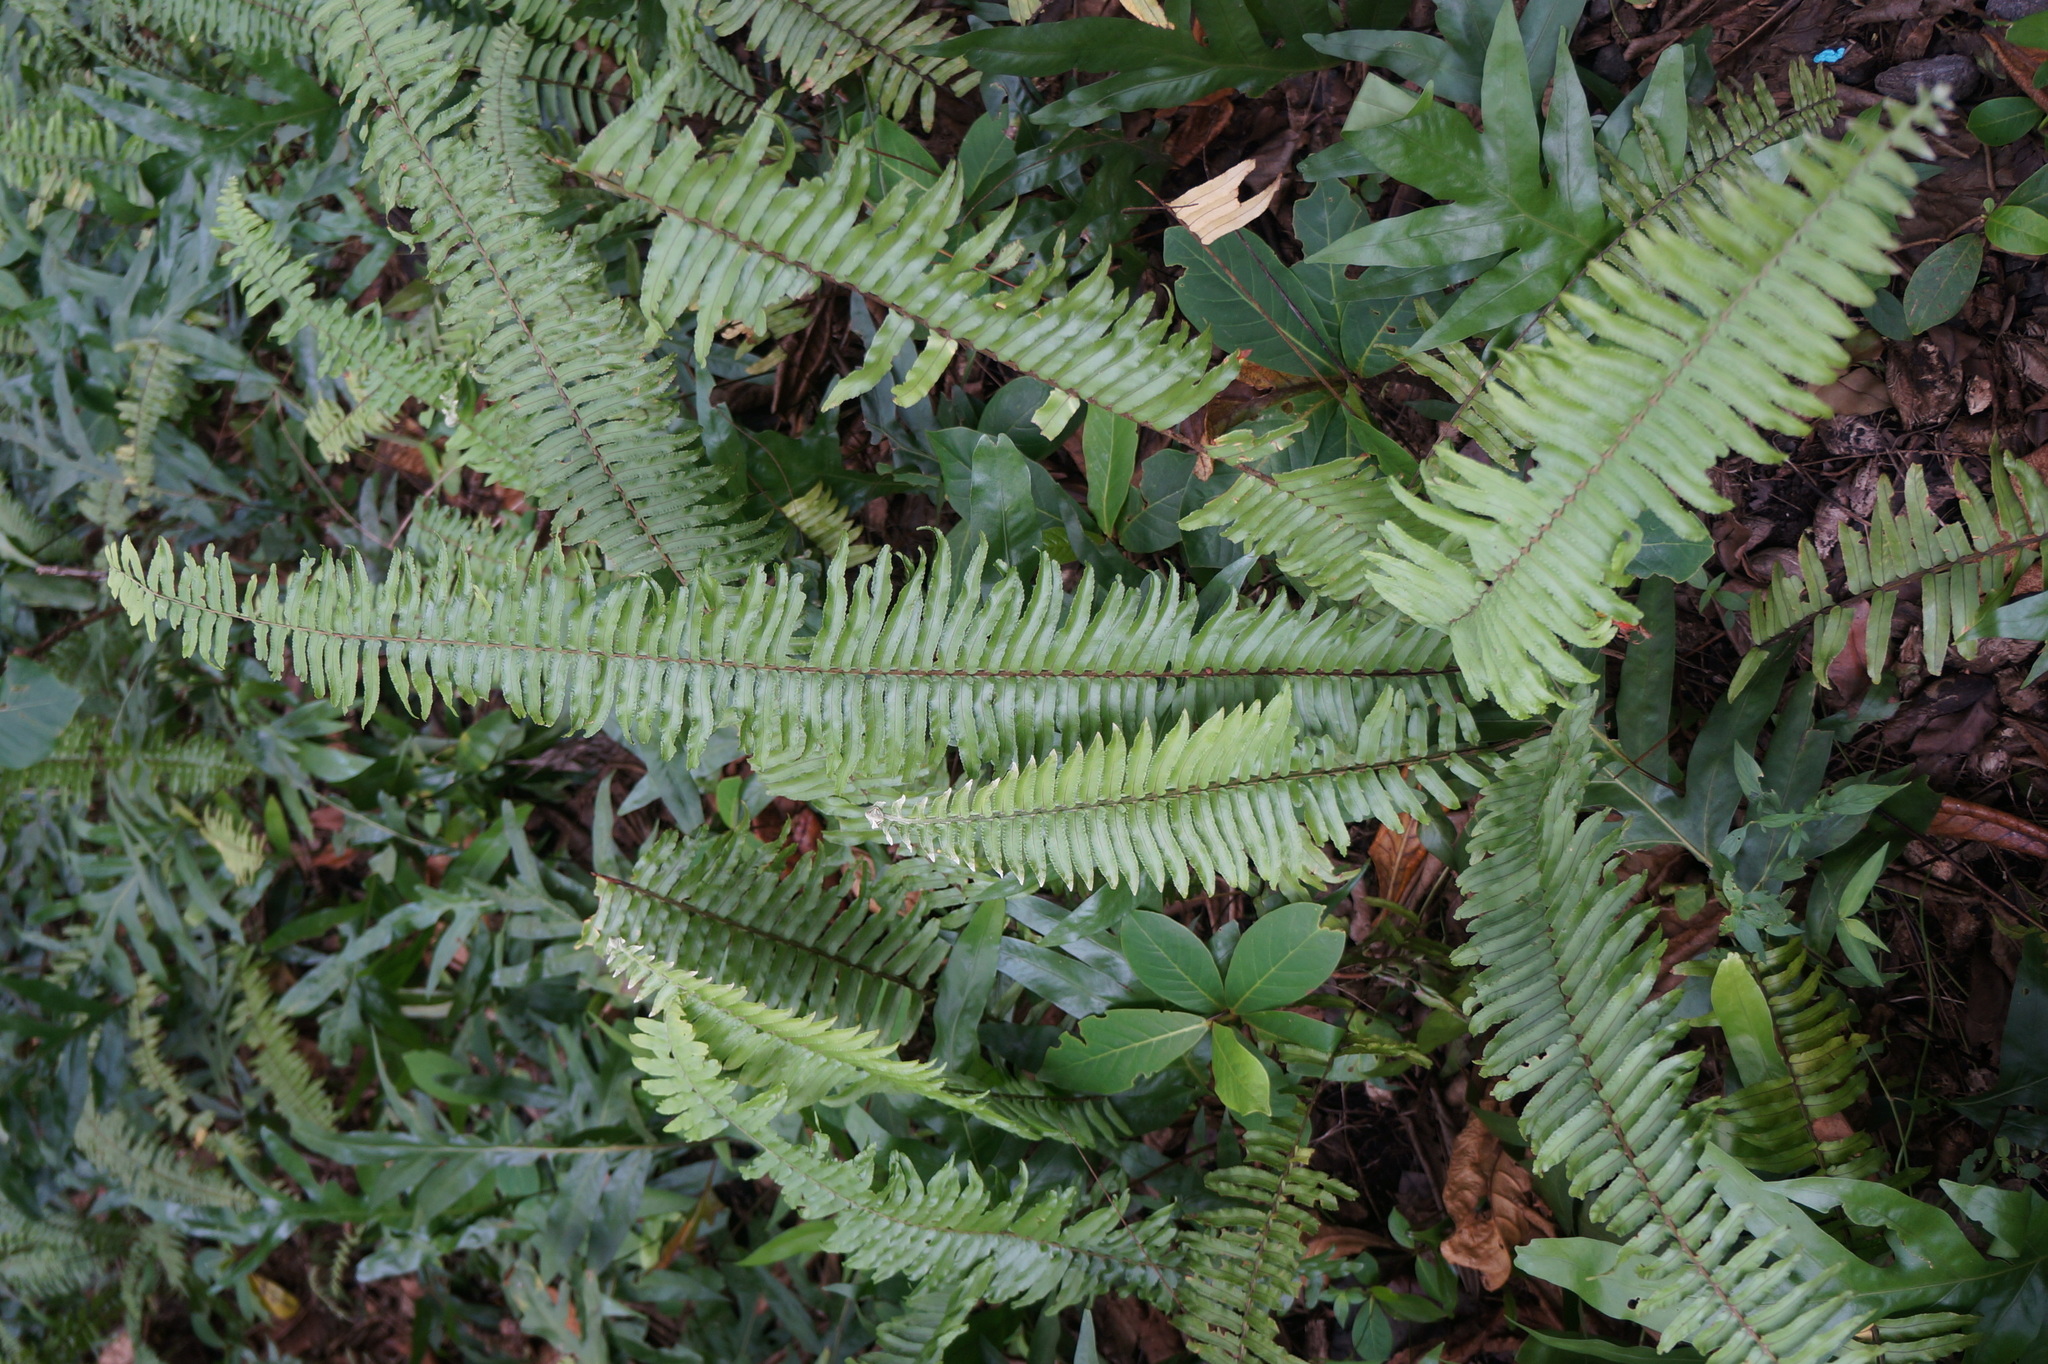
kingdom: Plantae
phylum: Tracheophyta
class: Polypodiopsida
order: Polypodiales
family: Nephrolepidaceae
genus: Nephrolepis
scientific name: Nephrolepis brownii
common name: Asian swordfern
